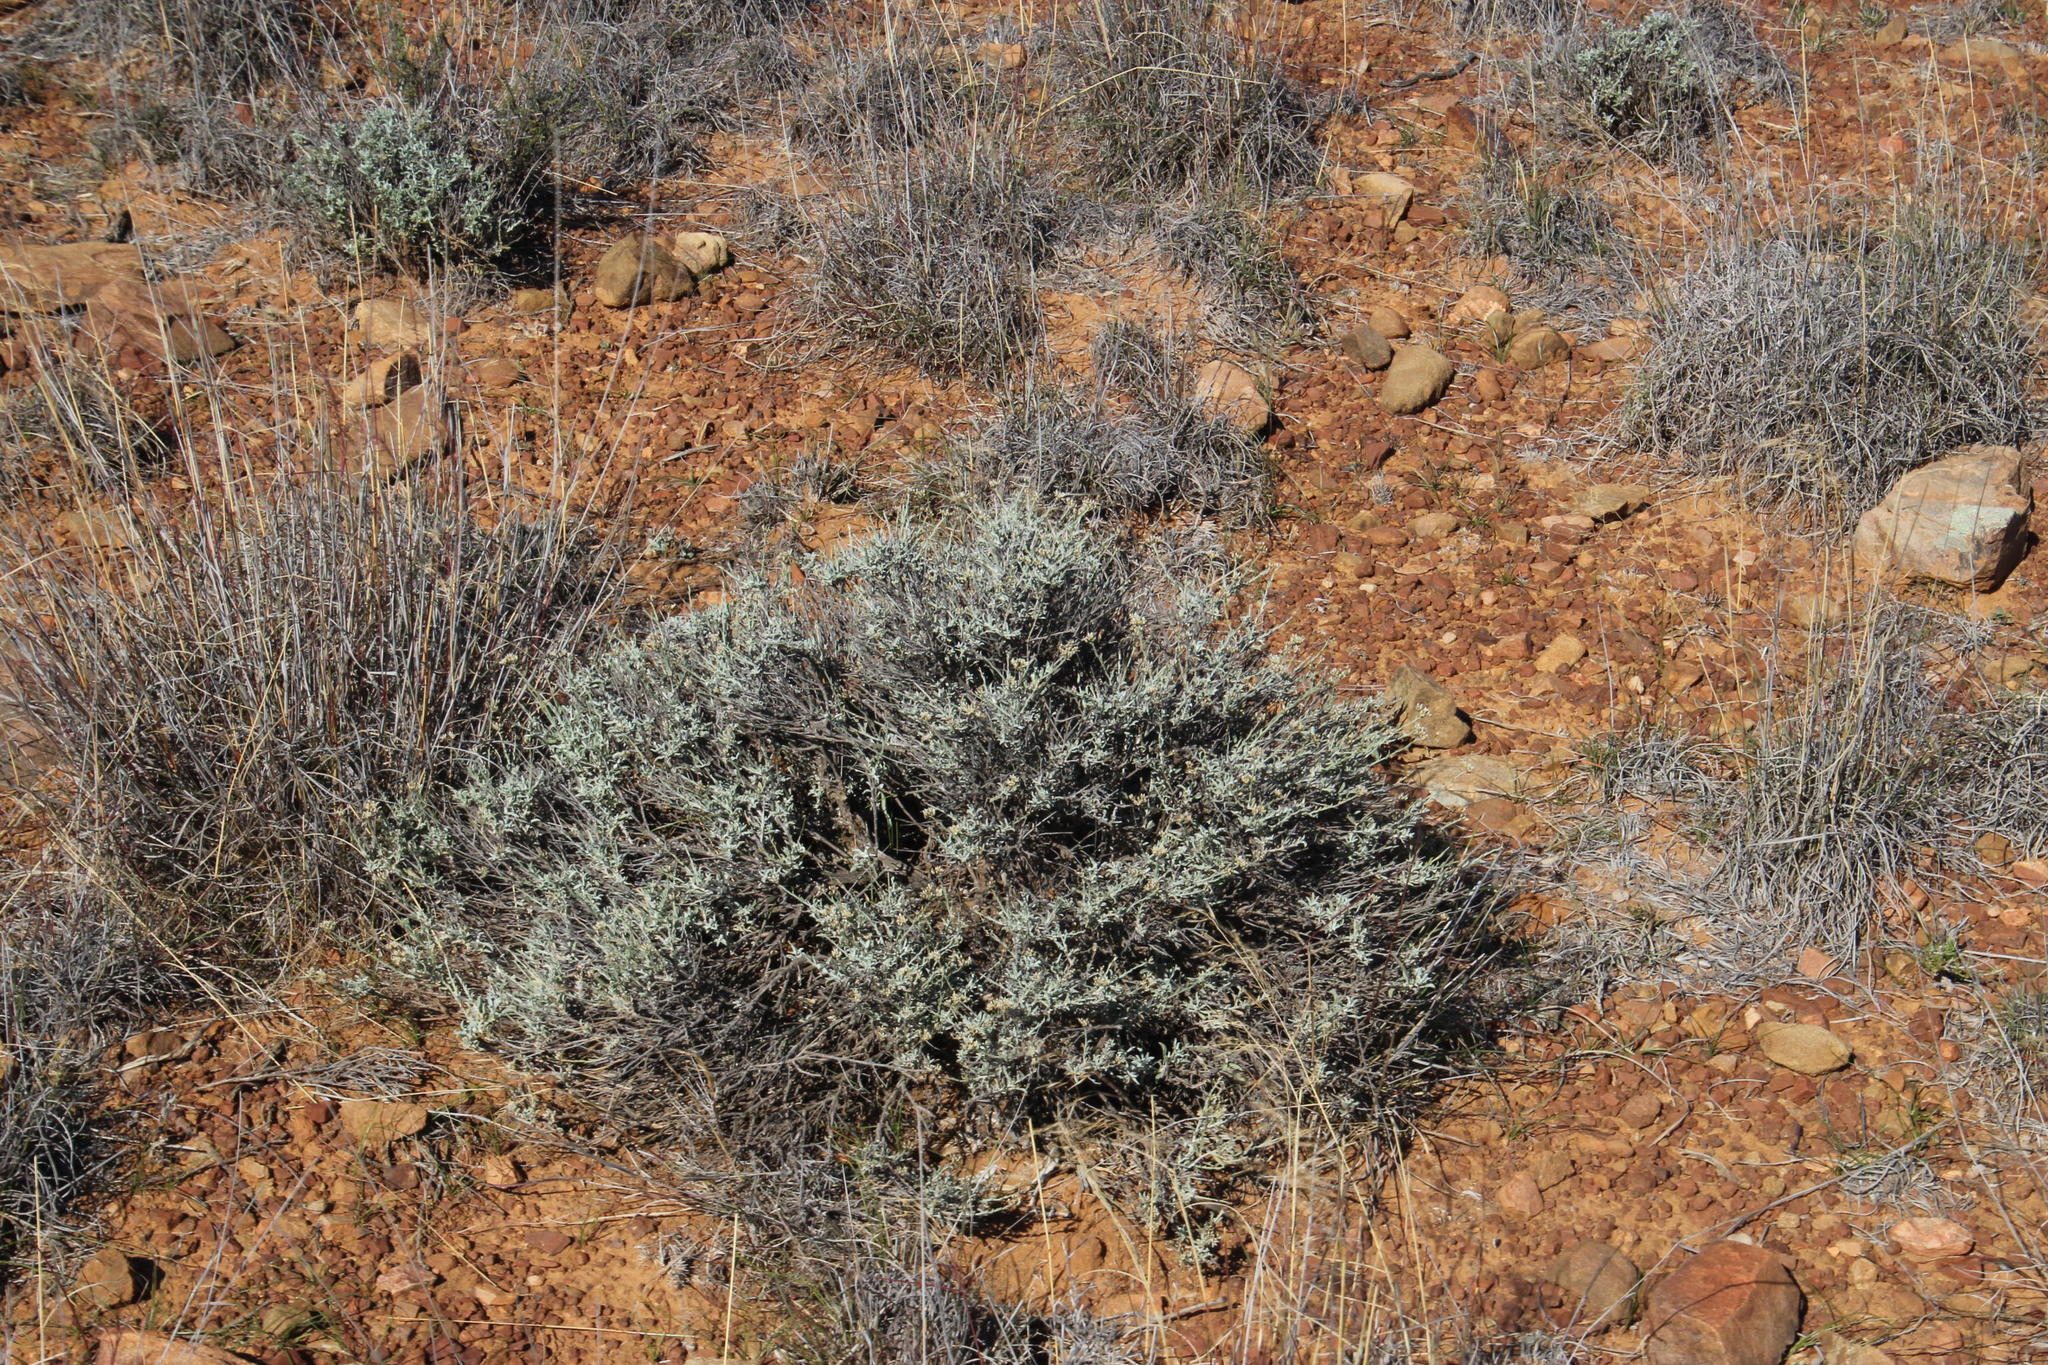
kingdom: Plantae
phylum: Tracheophyta
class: Magnoliopsida
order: Asterales
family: Asteraceae
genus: Helichrysum
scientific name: Helichrysum zeyheri
